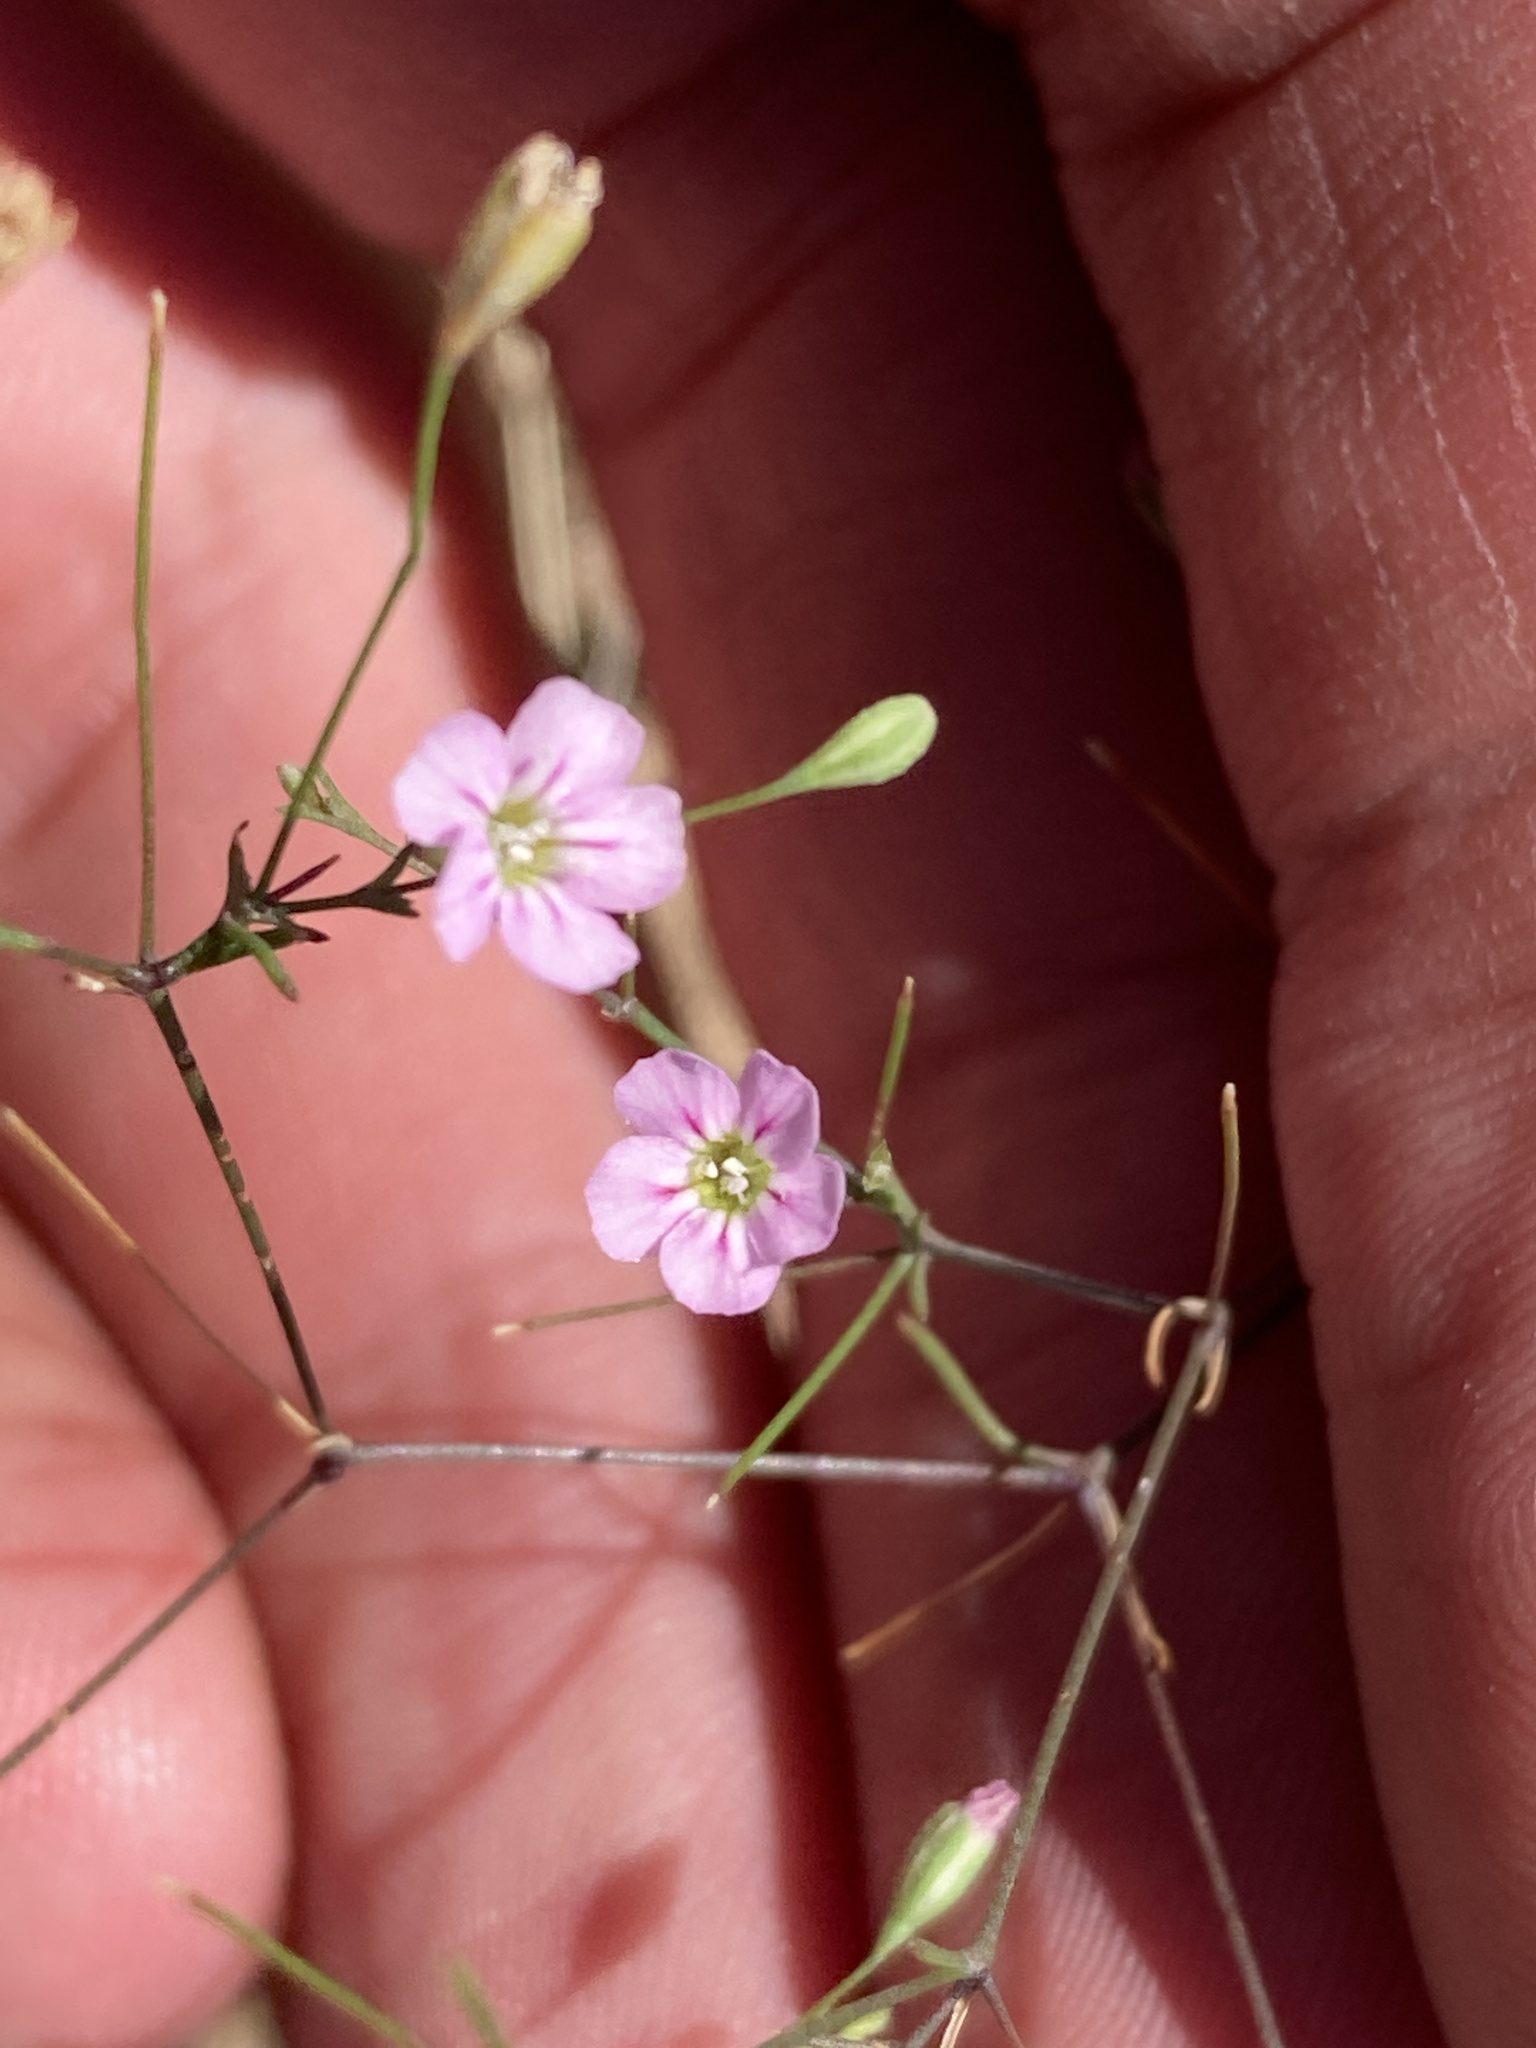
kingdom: Plantae
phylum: Tracheophyta
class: Magnoliopsida
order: Caryophyllales
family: Caryophyllaceae
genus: Psammophiliella
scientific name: Psammophiliella muralis
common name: Cushion baby's-breath
